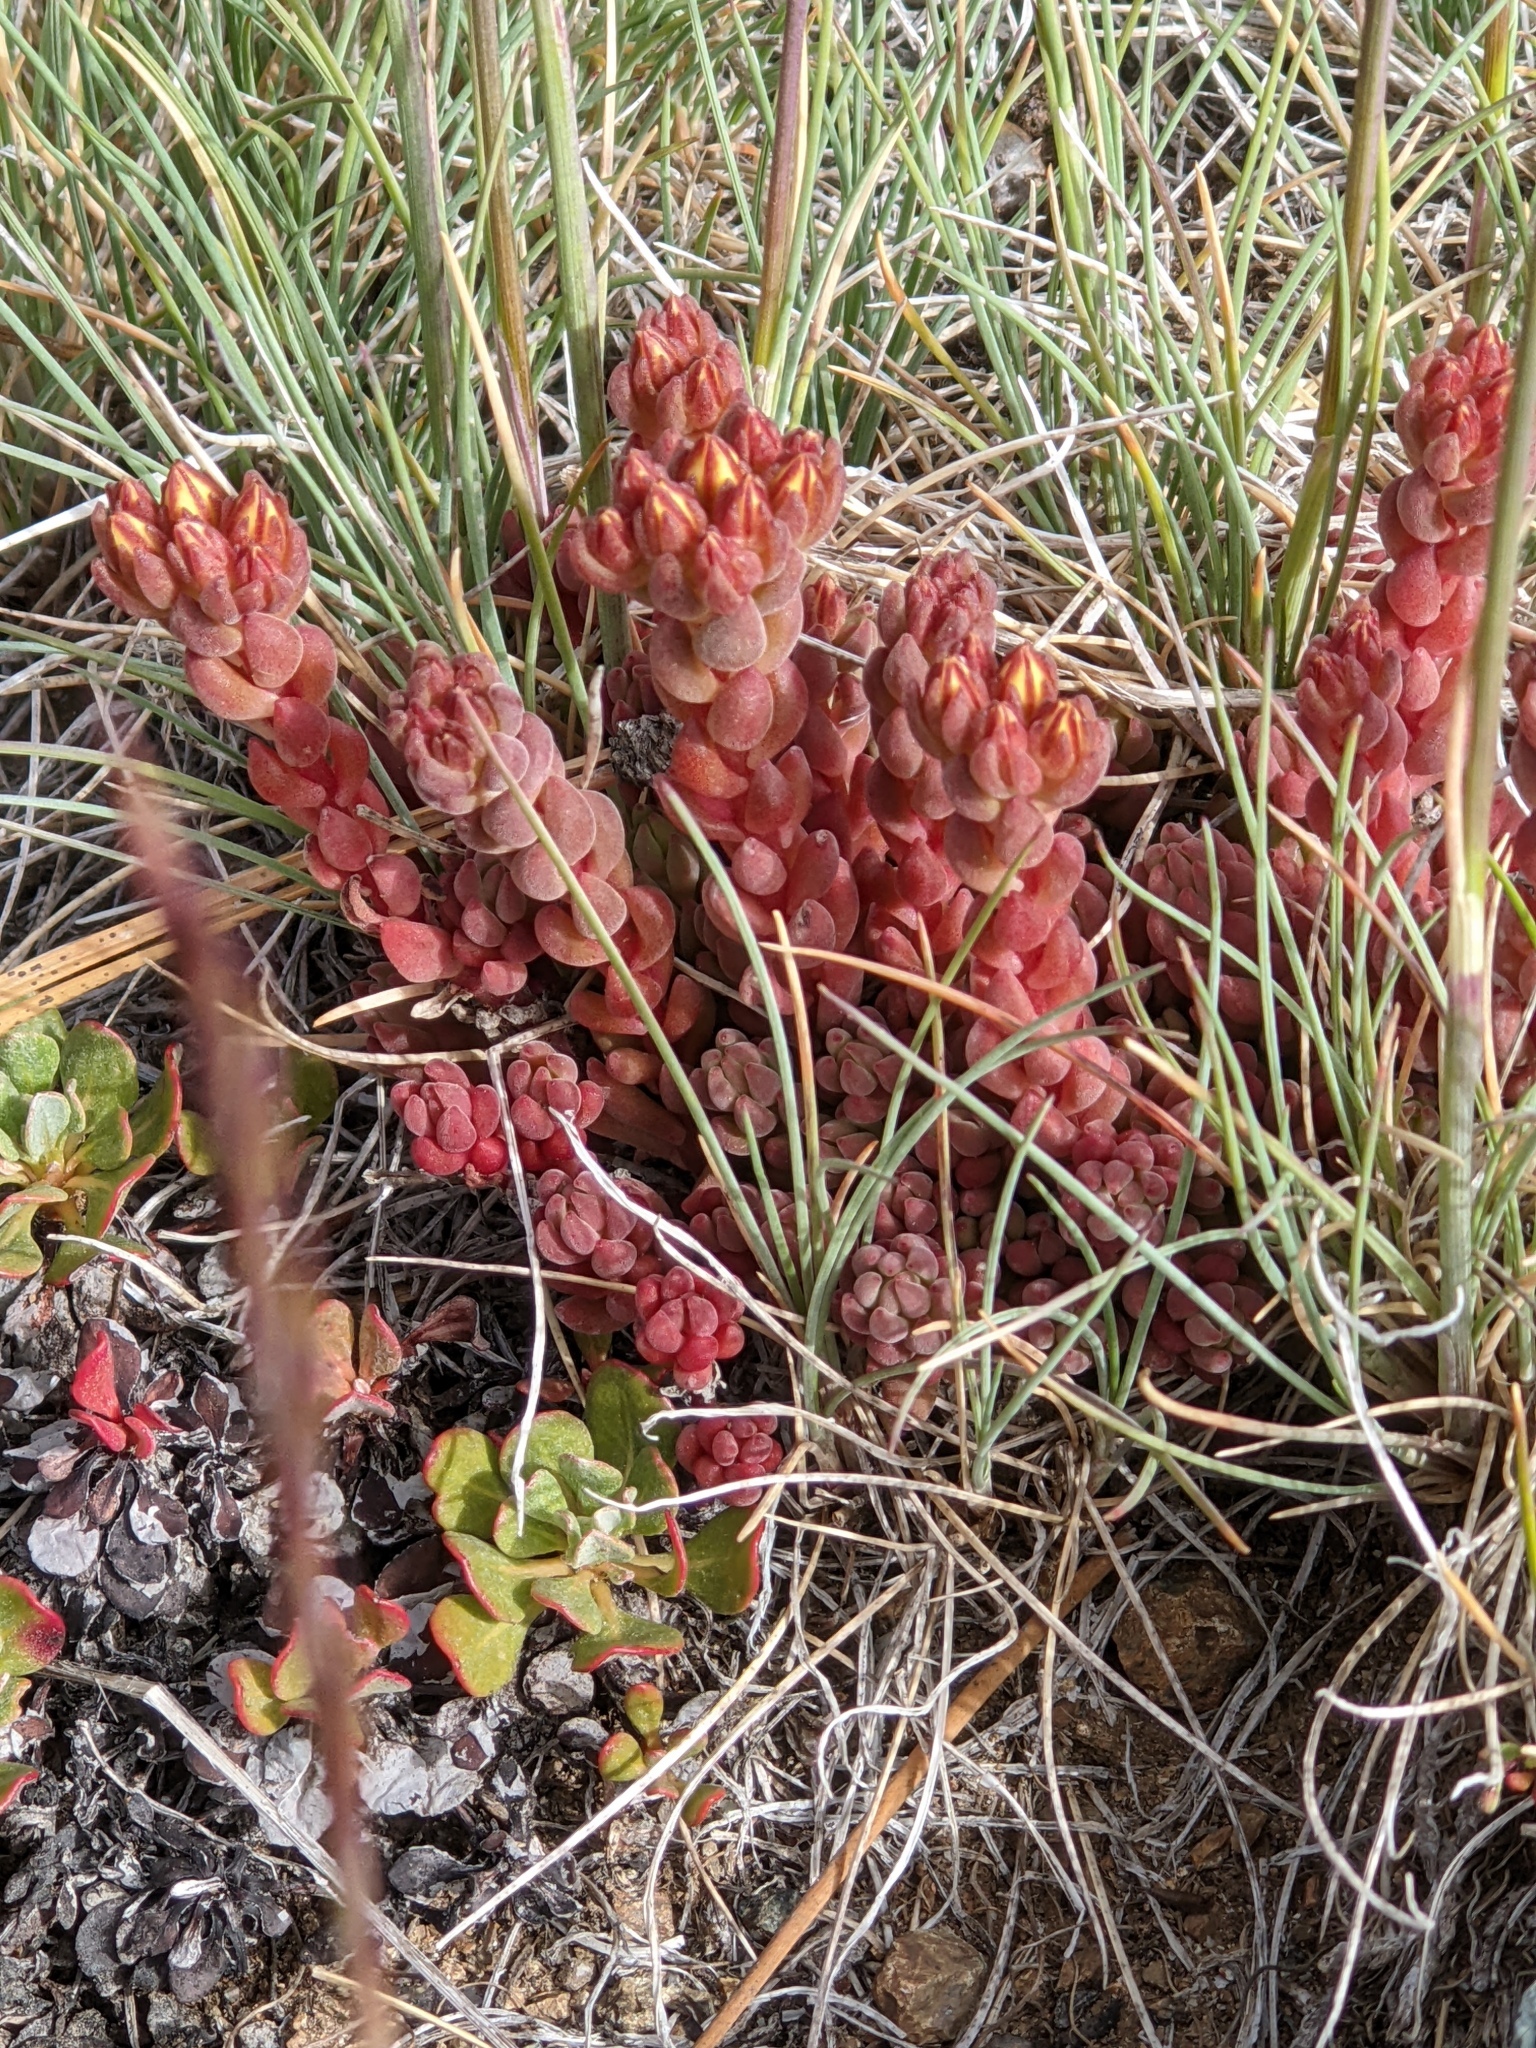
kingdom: Plantae
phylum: Tracheophyta
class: Magnoliopsida
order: Saxifragales
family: Crassulaceae
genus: Sedum
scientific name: Sedum lanceolatum
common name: Common stonecrop
